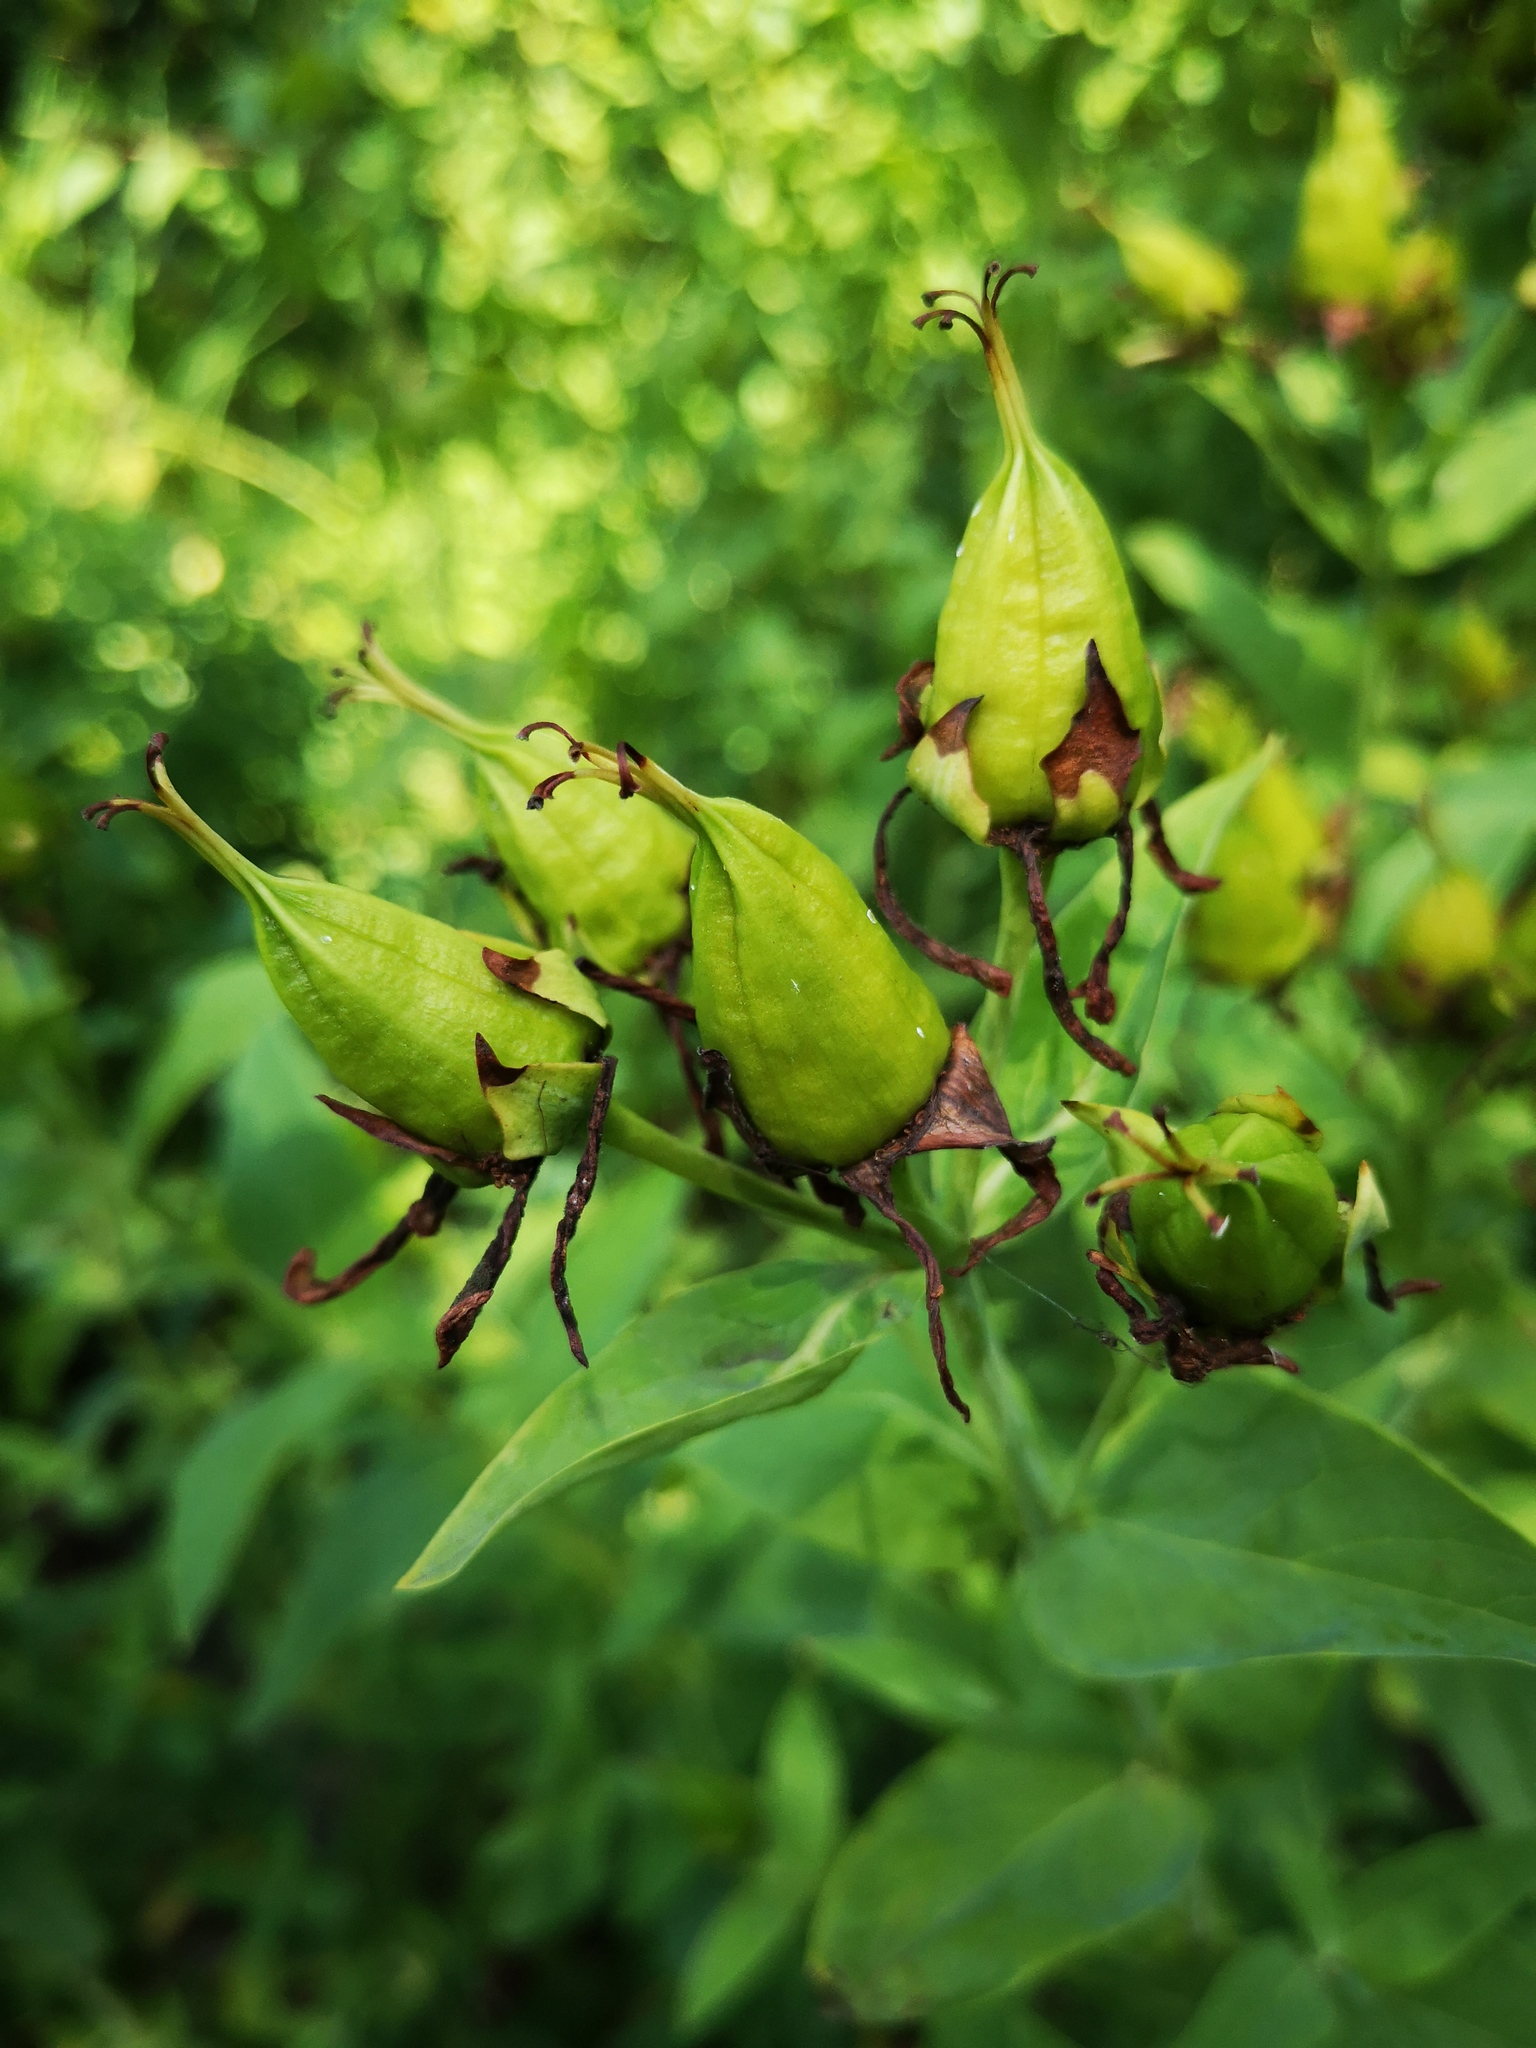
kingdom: Plantae
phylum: Tracheophyta
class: Magnoliopsida
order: Malpighiales
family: Hypericaceae
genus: Hypericum
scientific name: Hypericum ascyron
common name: Giant st. john's-wort
